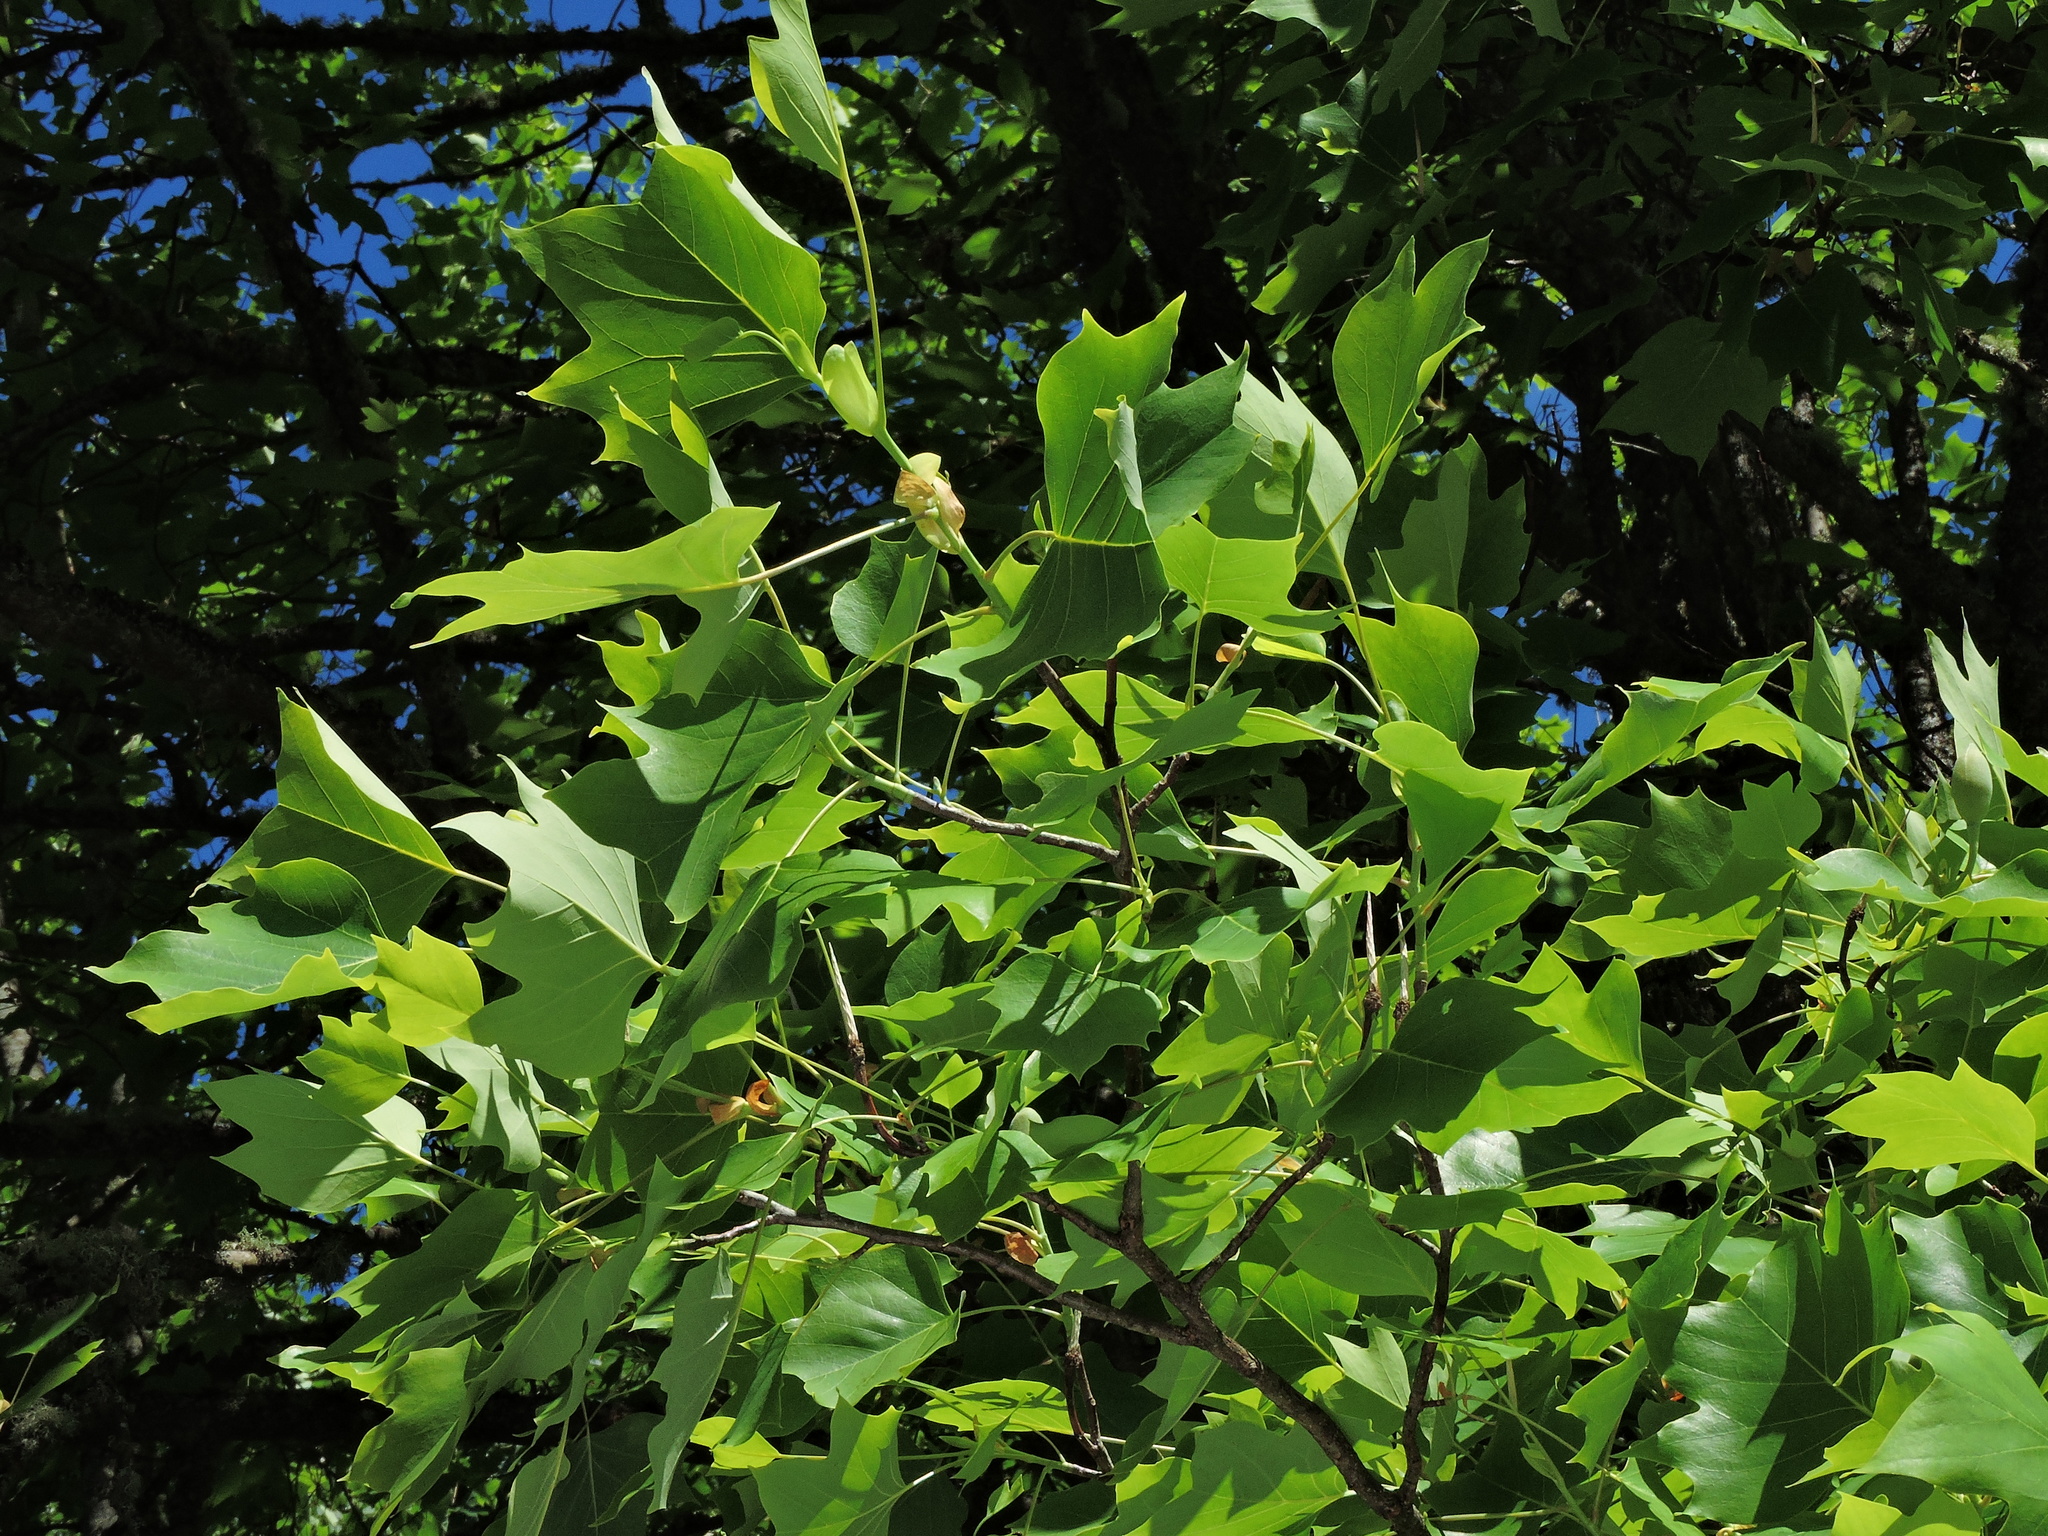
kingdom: Plantae
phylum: Tracheophyta
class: Magnoliopsida
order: Magnoliales
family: Magnoliaceae
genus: Liriodendron
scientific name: Liriodendron tulipifera
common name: Tulip tree
